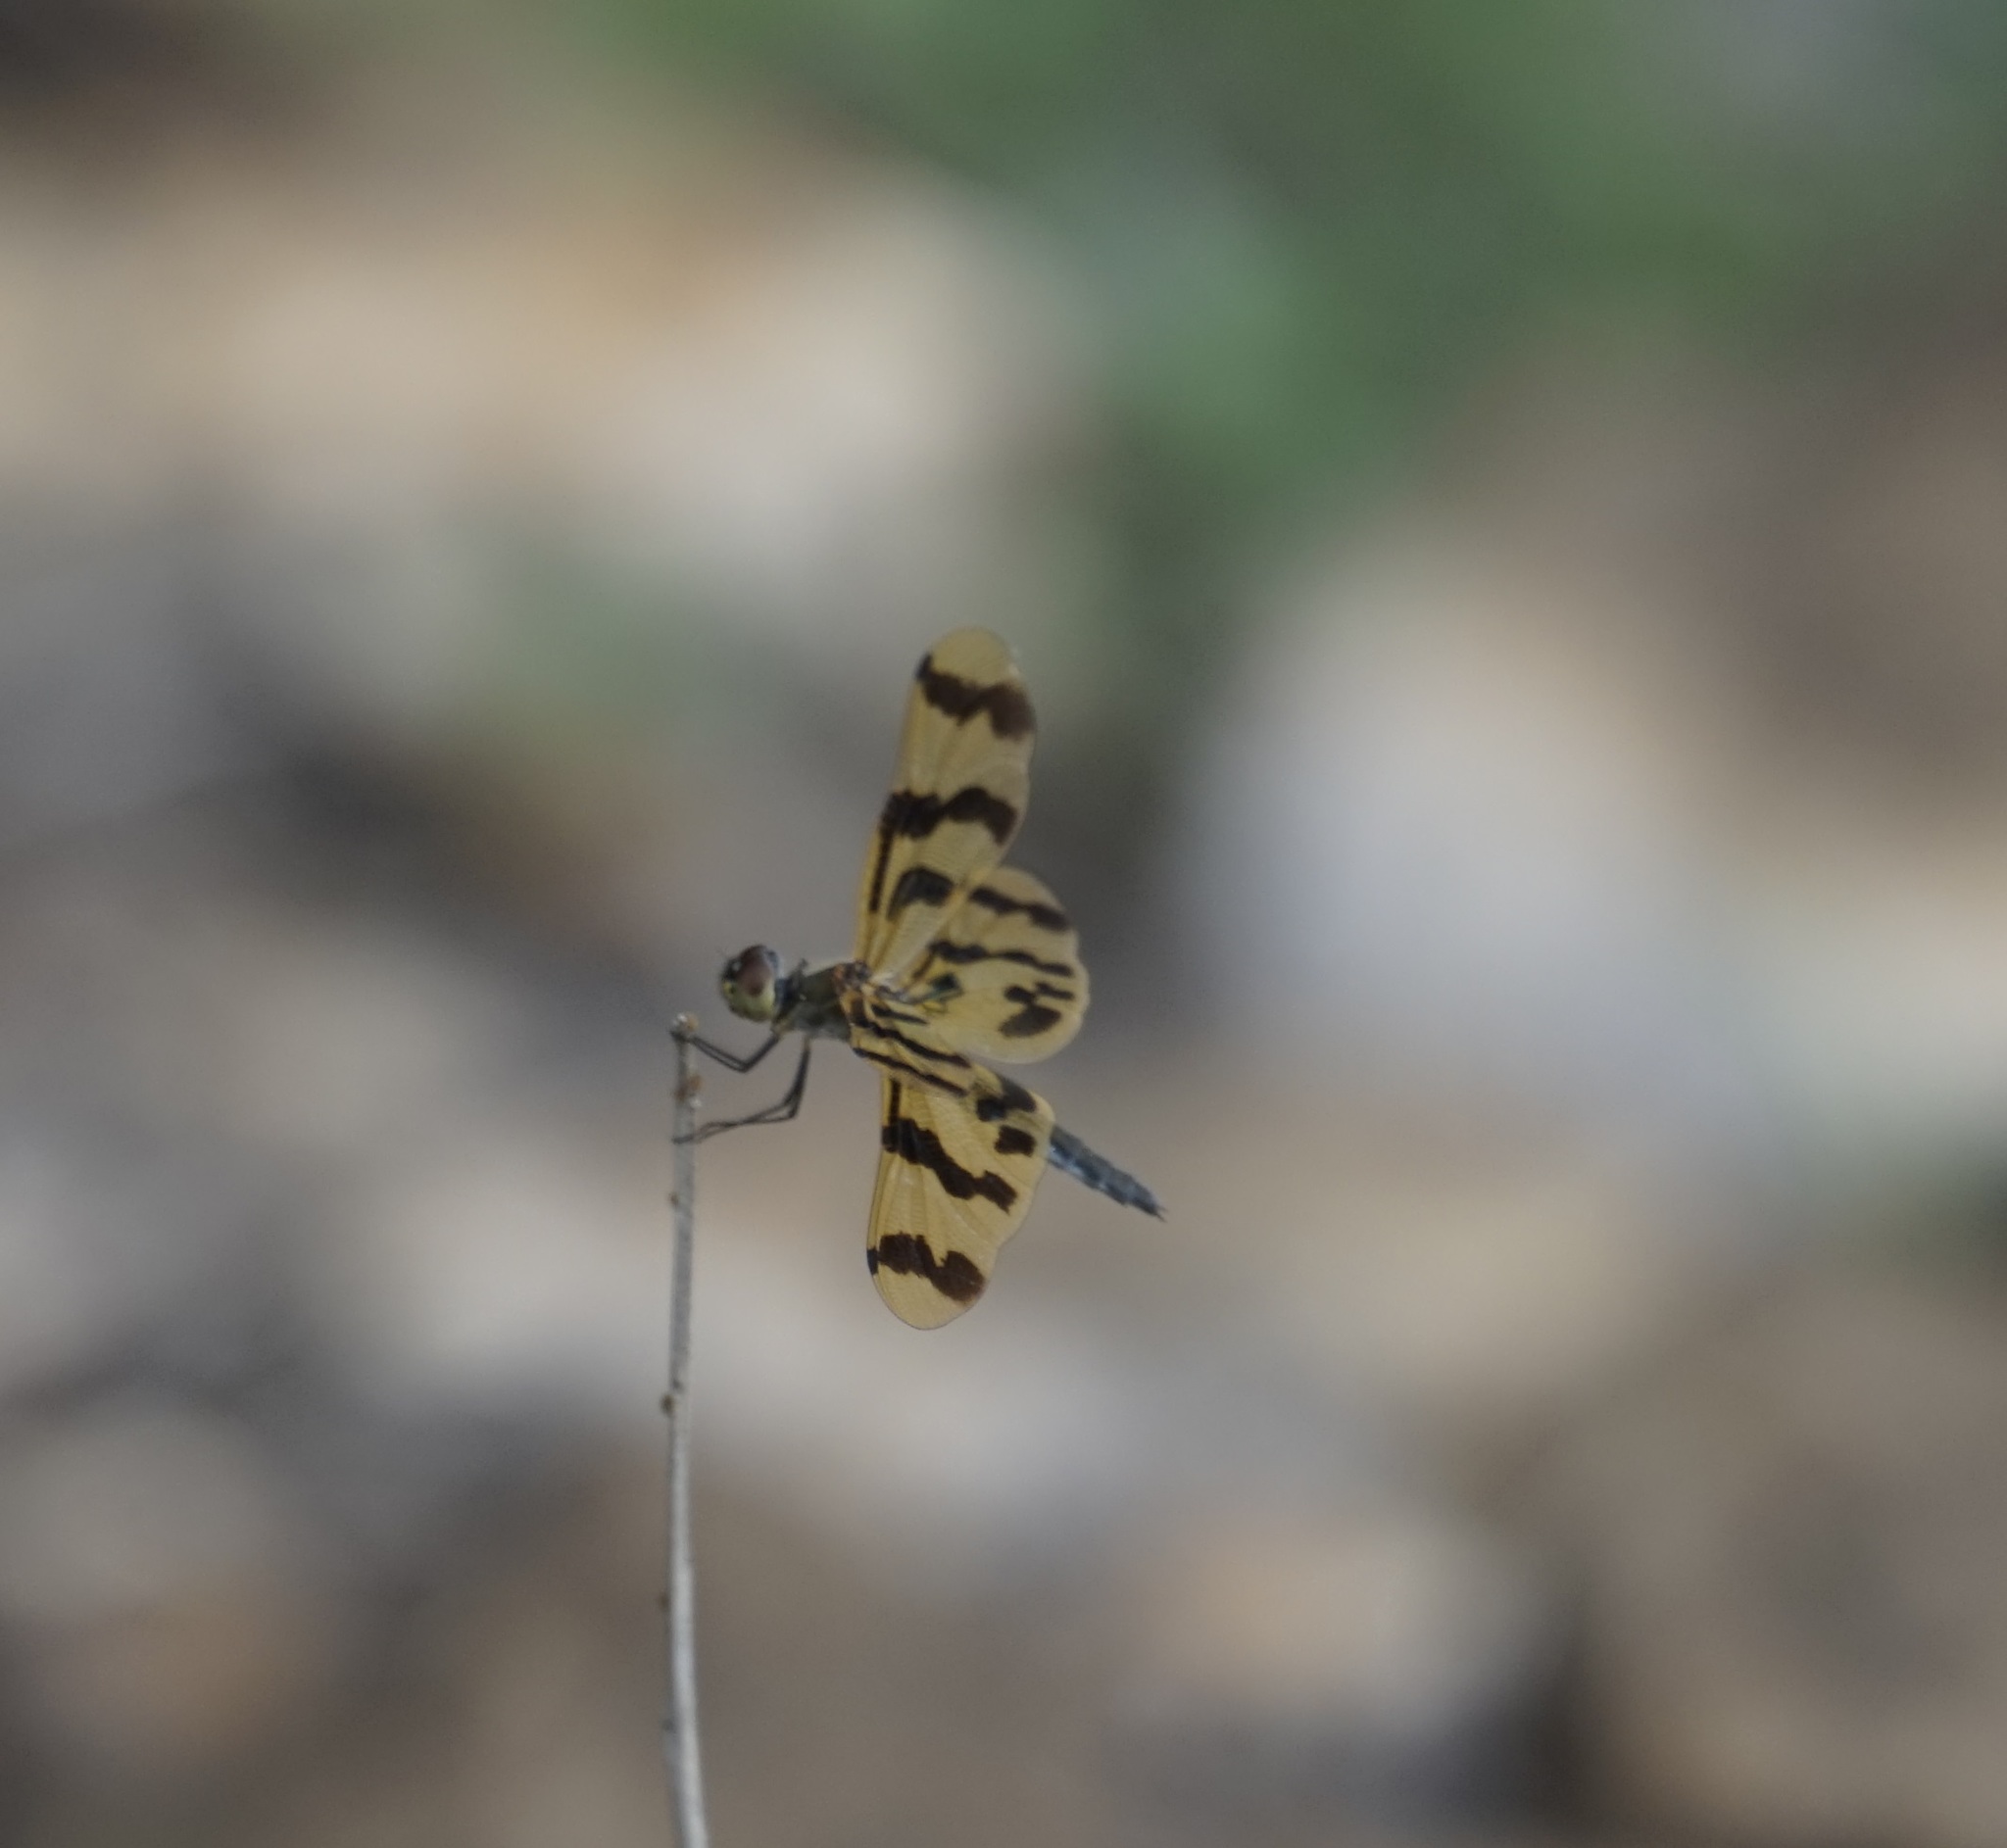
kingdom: Animalia
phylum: Arthropoda
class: Insecta
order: Odonata
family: Libellulidae
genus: Rhyothemis
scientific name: Rhyothemis graphiptera
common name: Graphic flutterer
